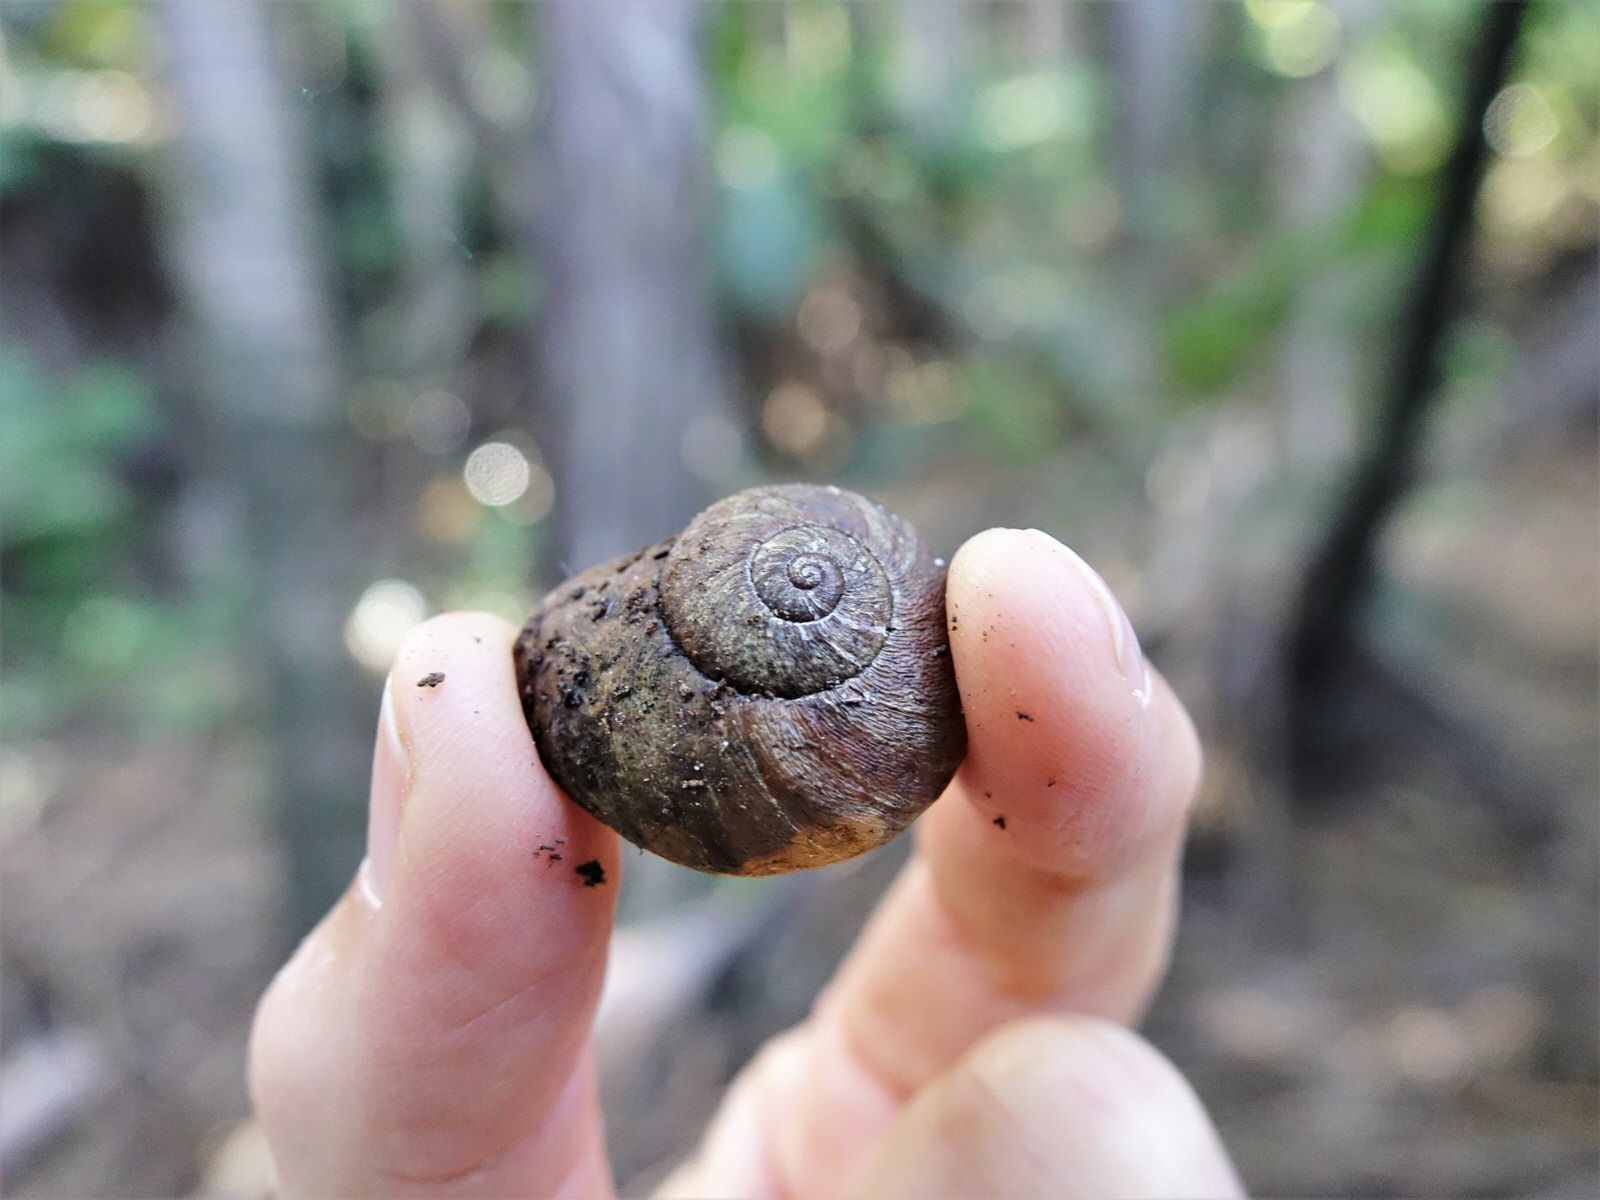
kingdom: Animalia
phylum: Mollusca
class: Gastropoda
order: Stylommatophora
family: Rhytididae
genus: Rhytida
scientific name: Rhytida greenwoodi
